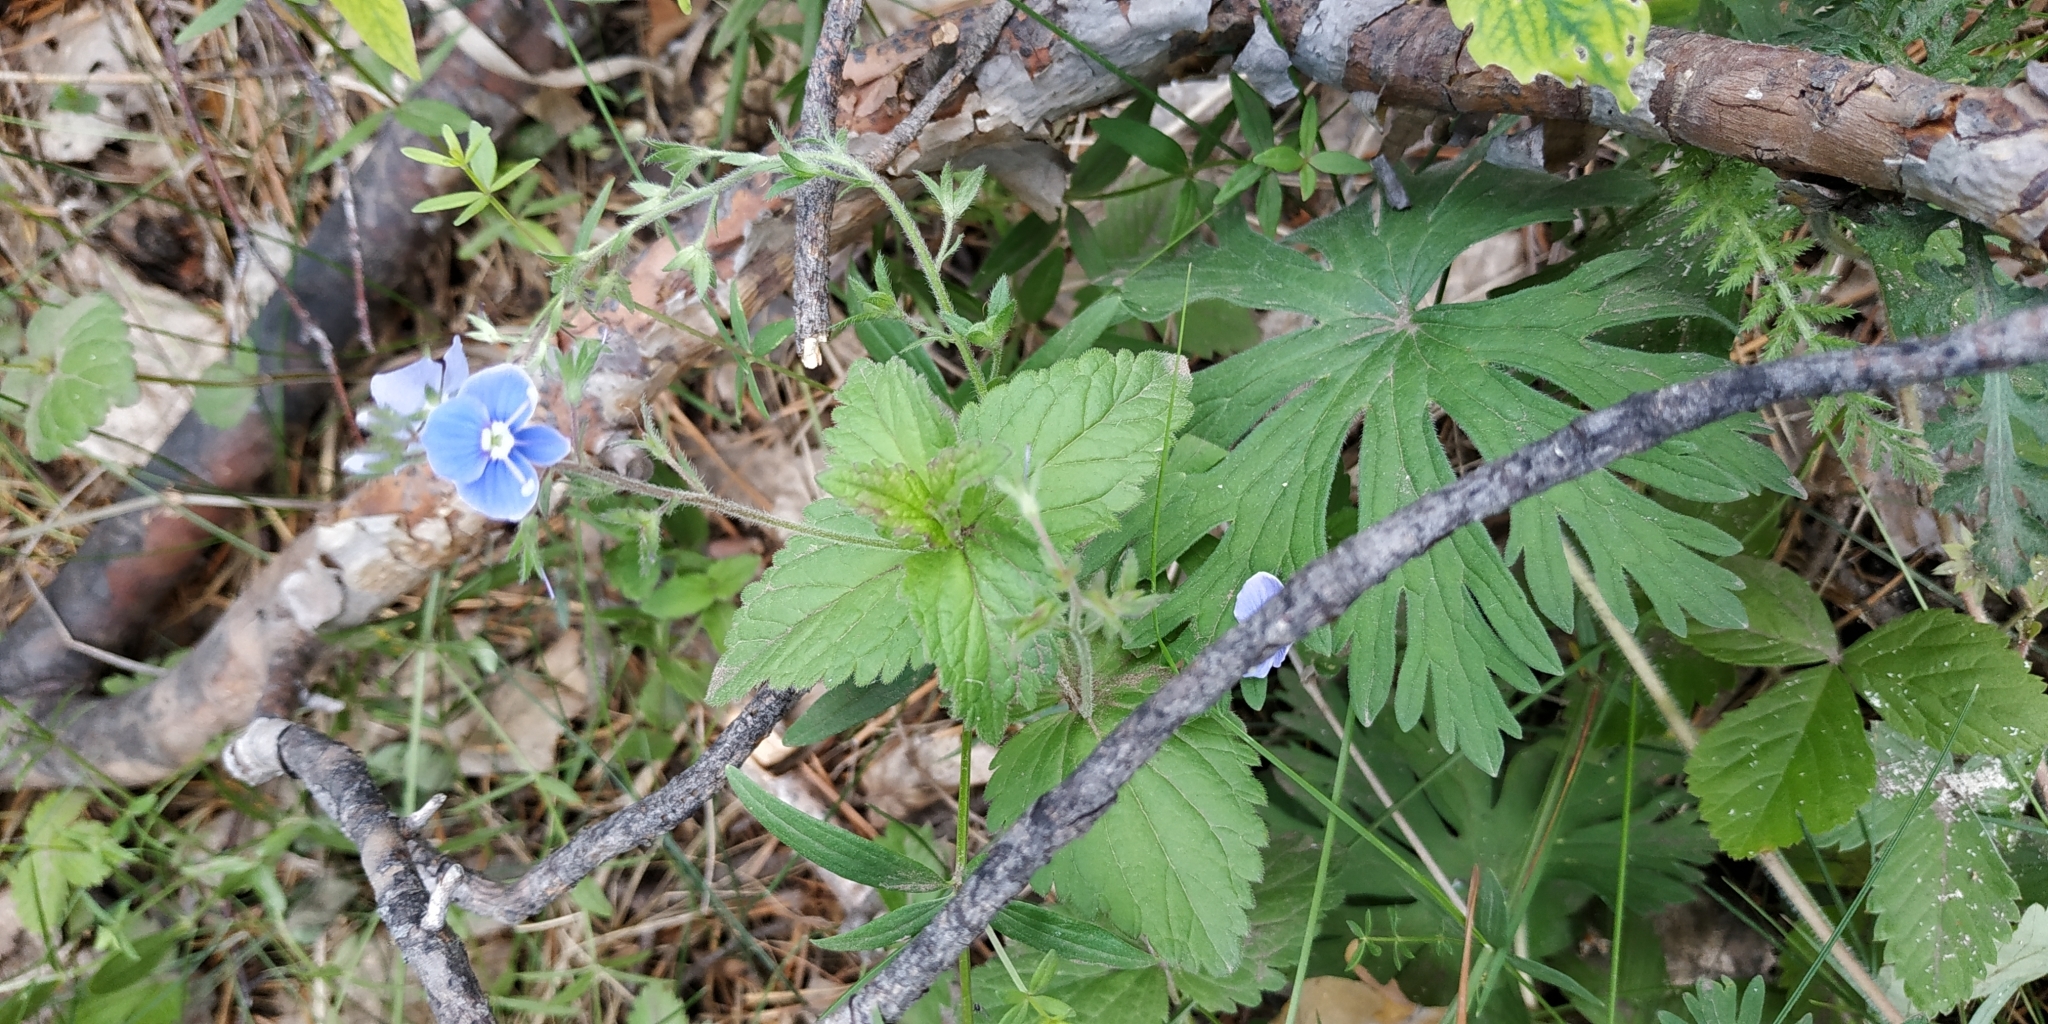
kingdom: Plantae
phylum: Tracheophyta
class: Magnoliopsida
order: Lamiales
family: Plantaginaceae
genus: Veronica
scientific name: Veronica chamaedrys
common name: Germander speedwell
